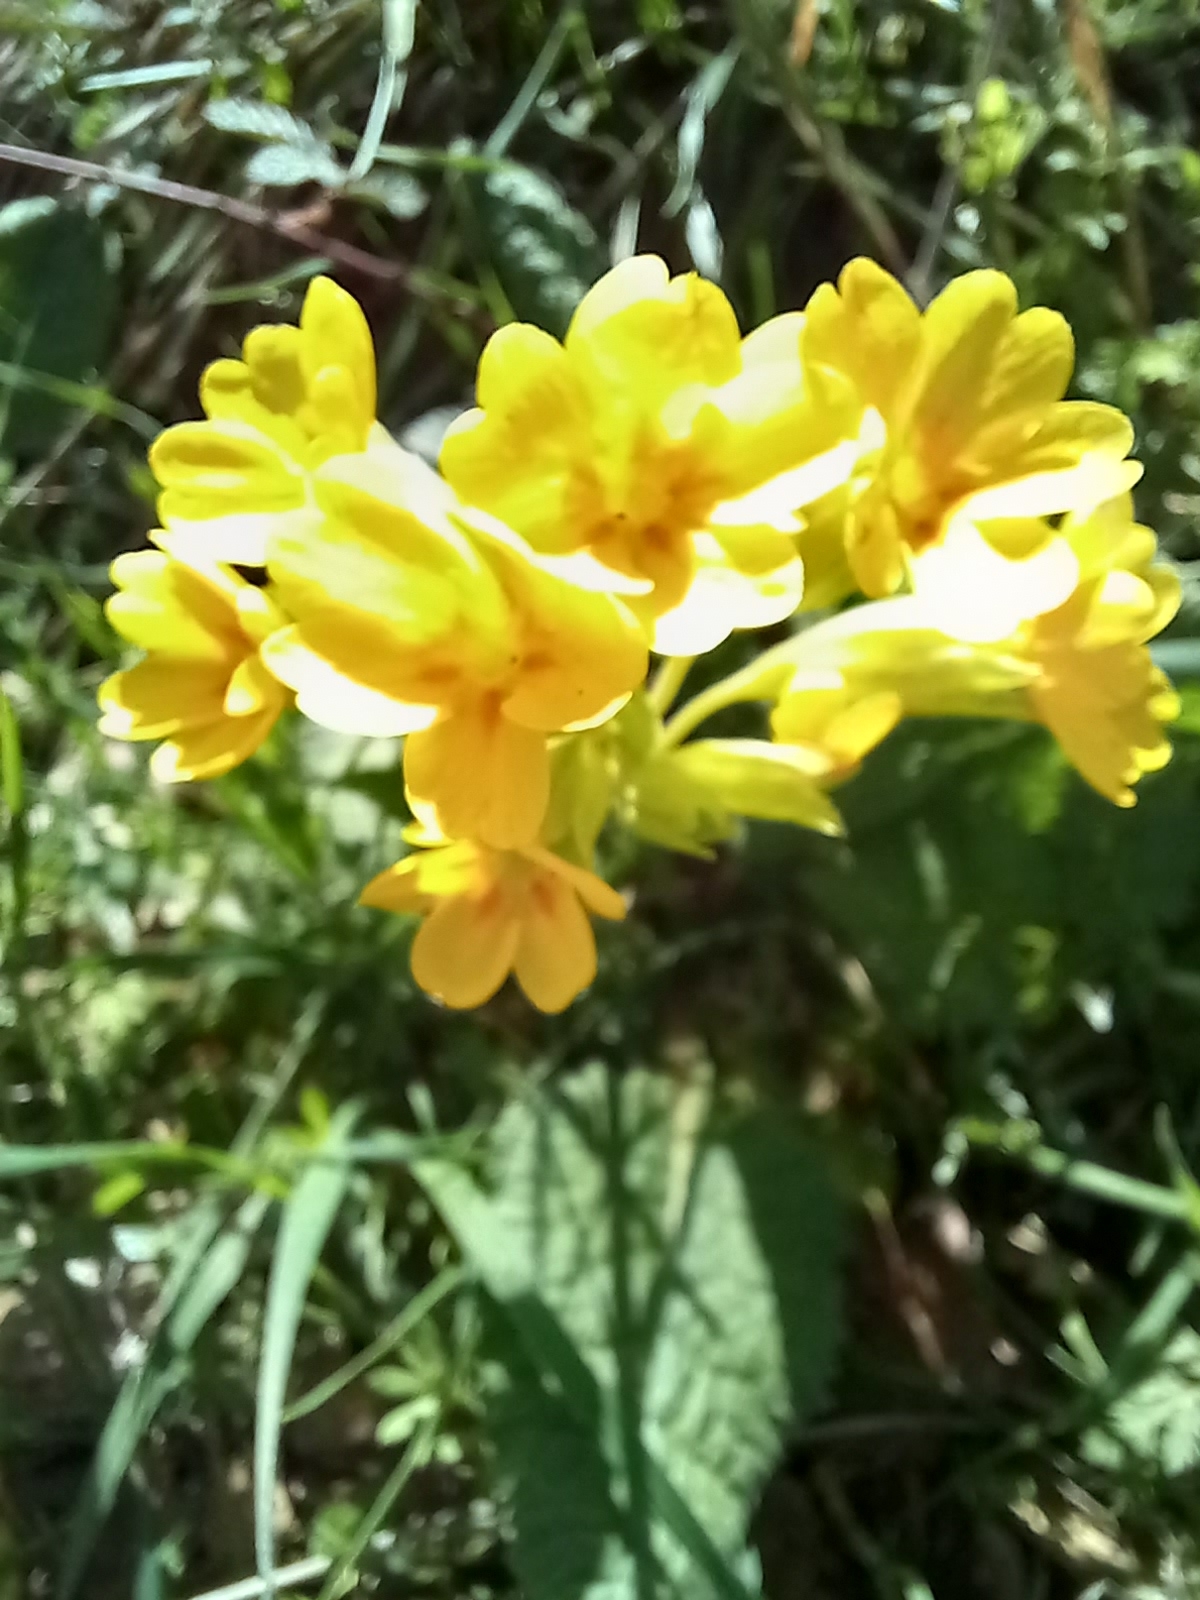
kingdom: Plantae
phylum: Tracheophyta
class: Magnoliopsida
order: Ericales
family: Primulaceae
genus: Primula
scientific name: Primula veris
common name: Cowslip
